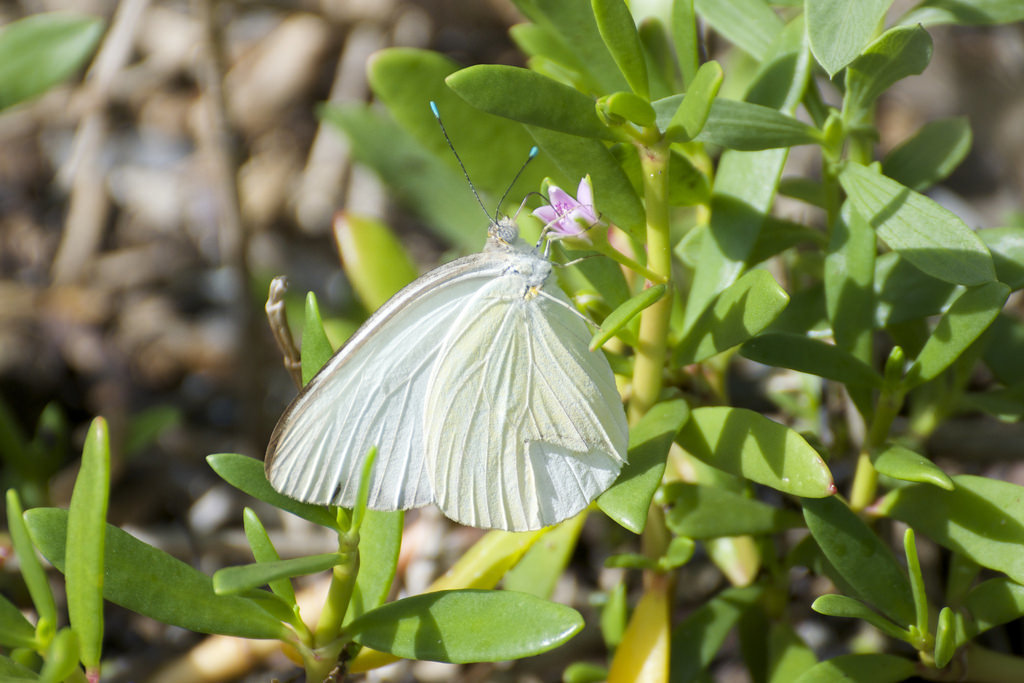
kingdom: Animalia
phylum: Arthropoda
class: Insecta
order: Lepidoptera
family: Pieridae
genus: Ascia
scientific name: Ascia monuste
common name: Great southern white
